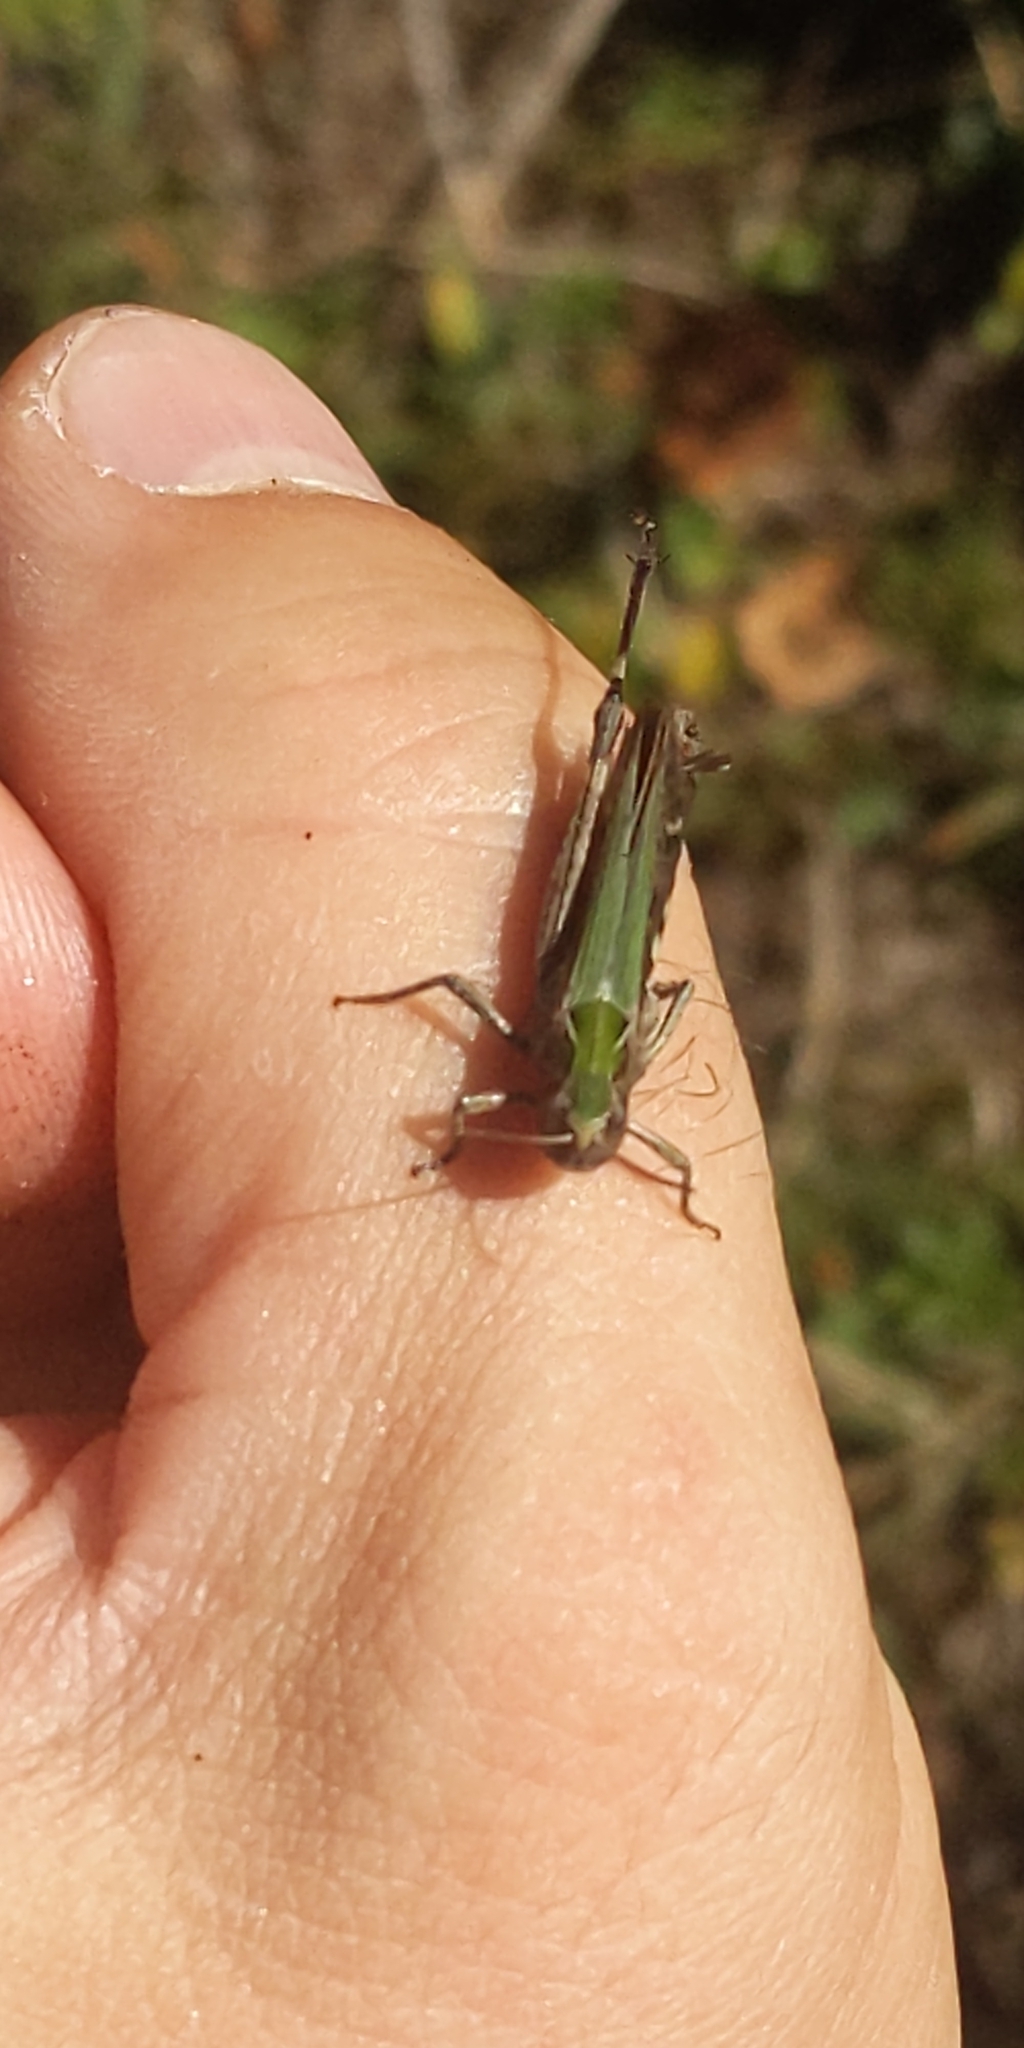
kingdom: Animalia
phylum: Arthropoda
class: Insecta
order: Orthoptera
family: Acrididae
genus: Omocestus
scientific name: Omocestus rufipes
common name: Woodland grasshopper
